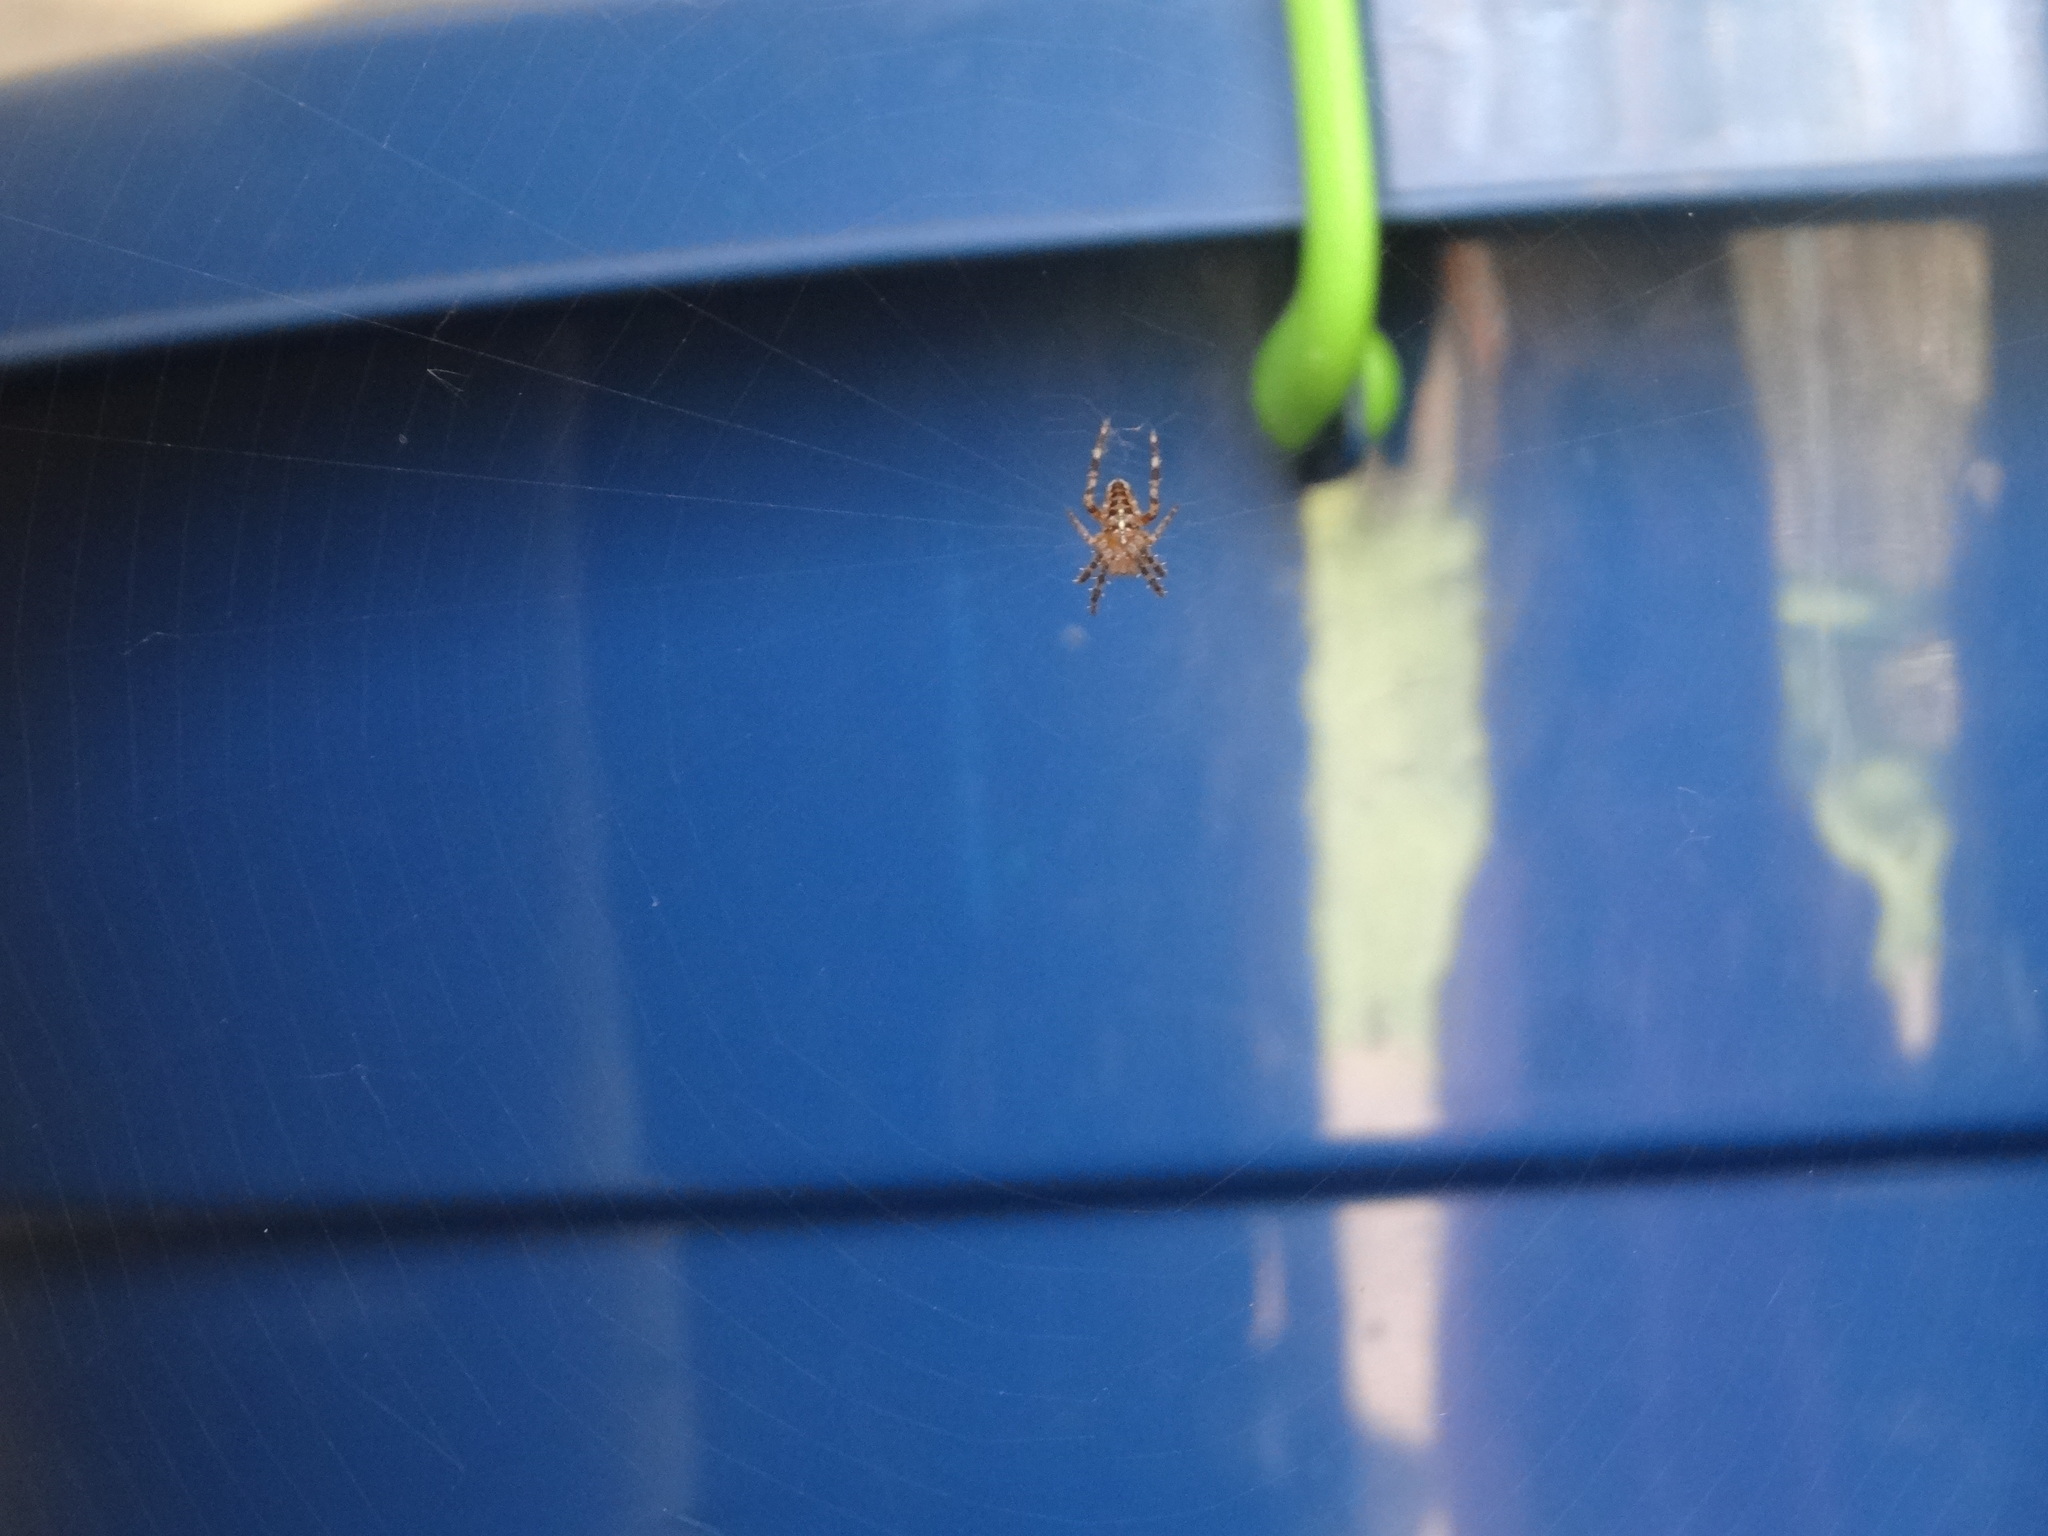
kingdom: Animalia
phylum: Arthropoda
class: Arachnida
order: Araneae
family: Araneidae
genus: Araneus
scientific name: Araneus diadematus
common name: Cross orbweaver
